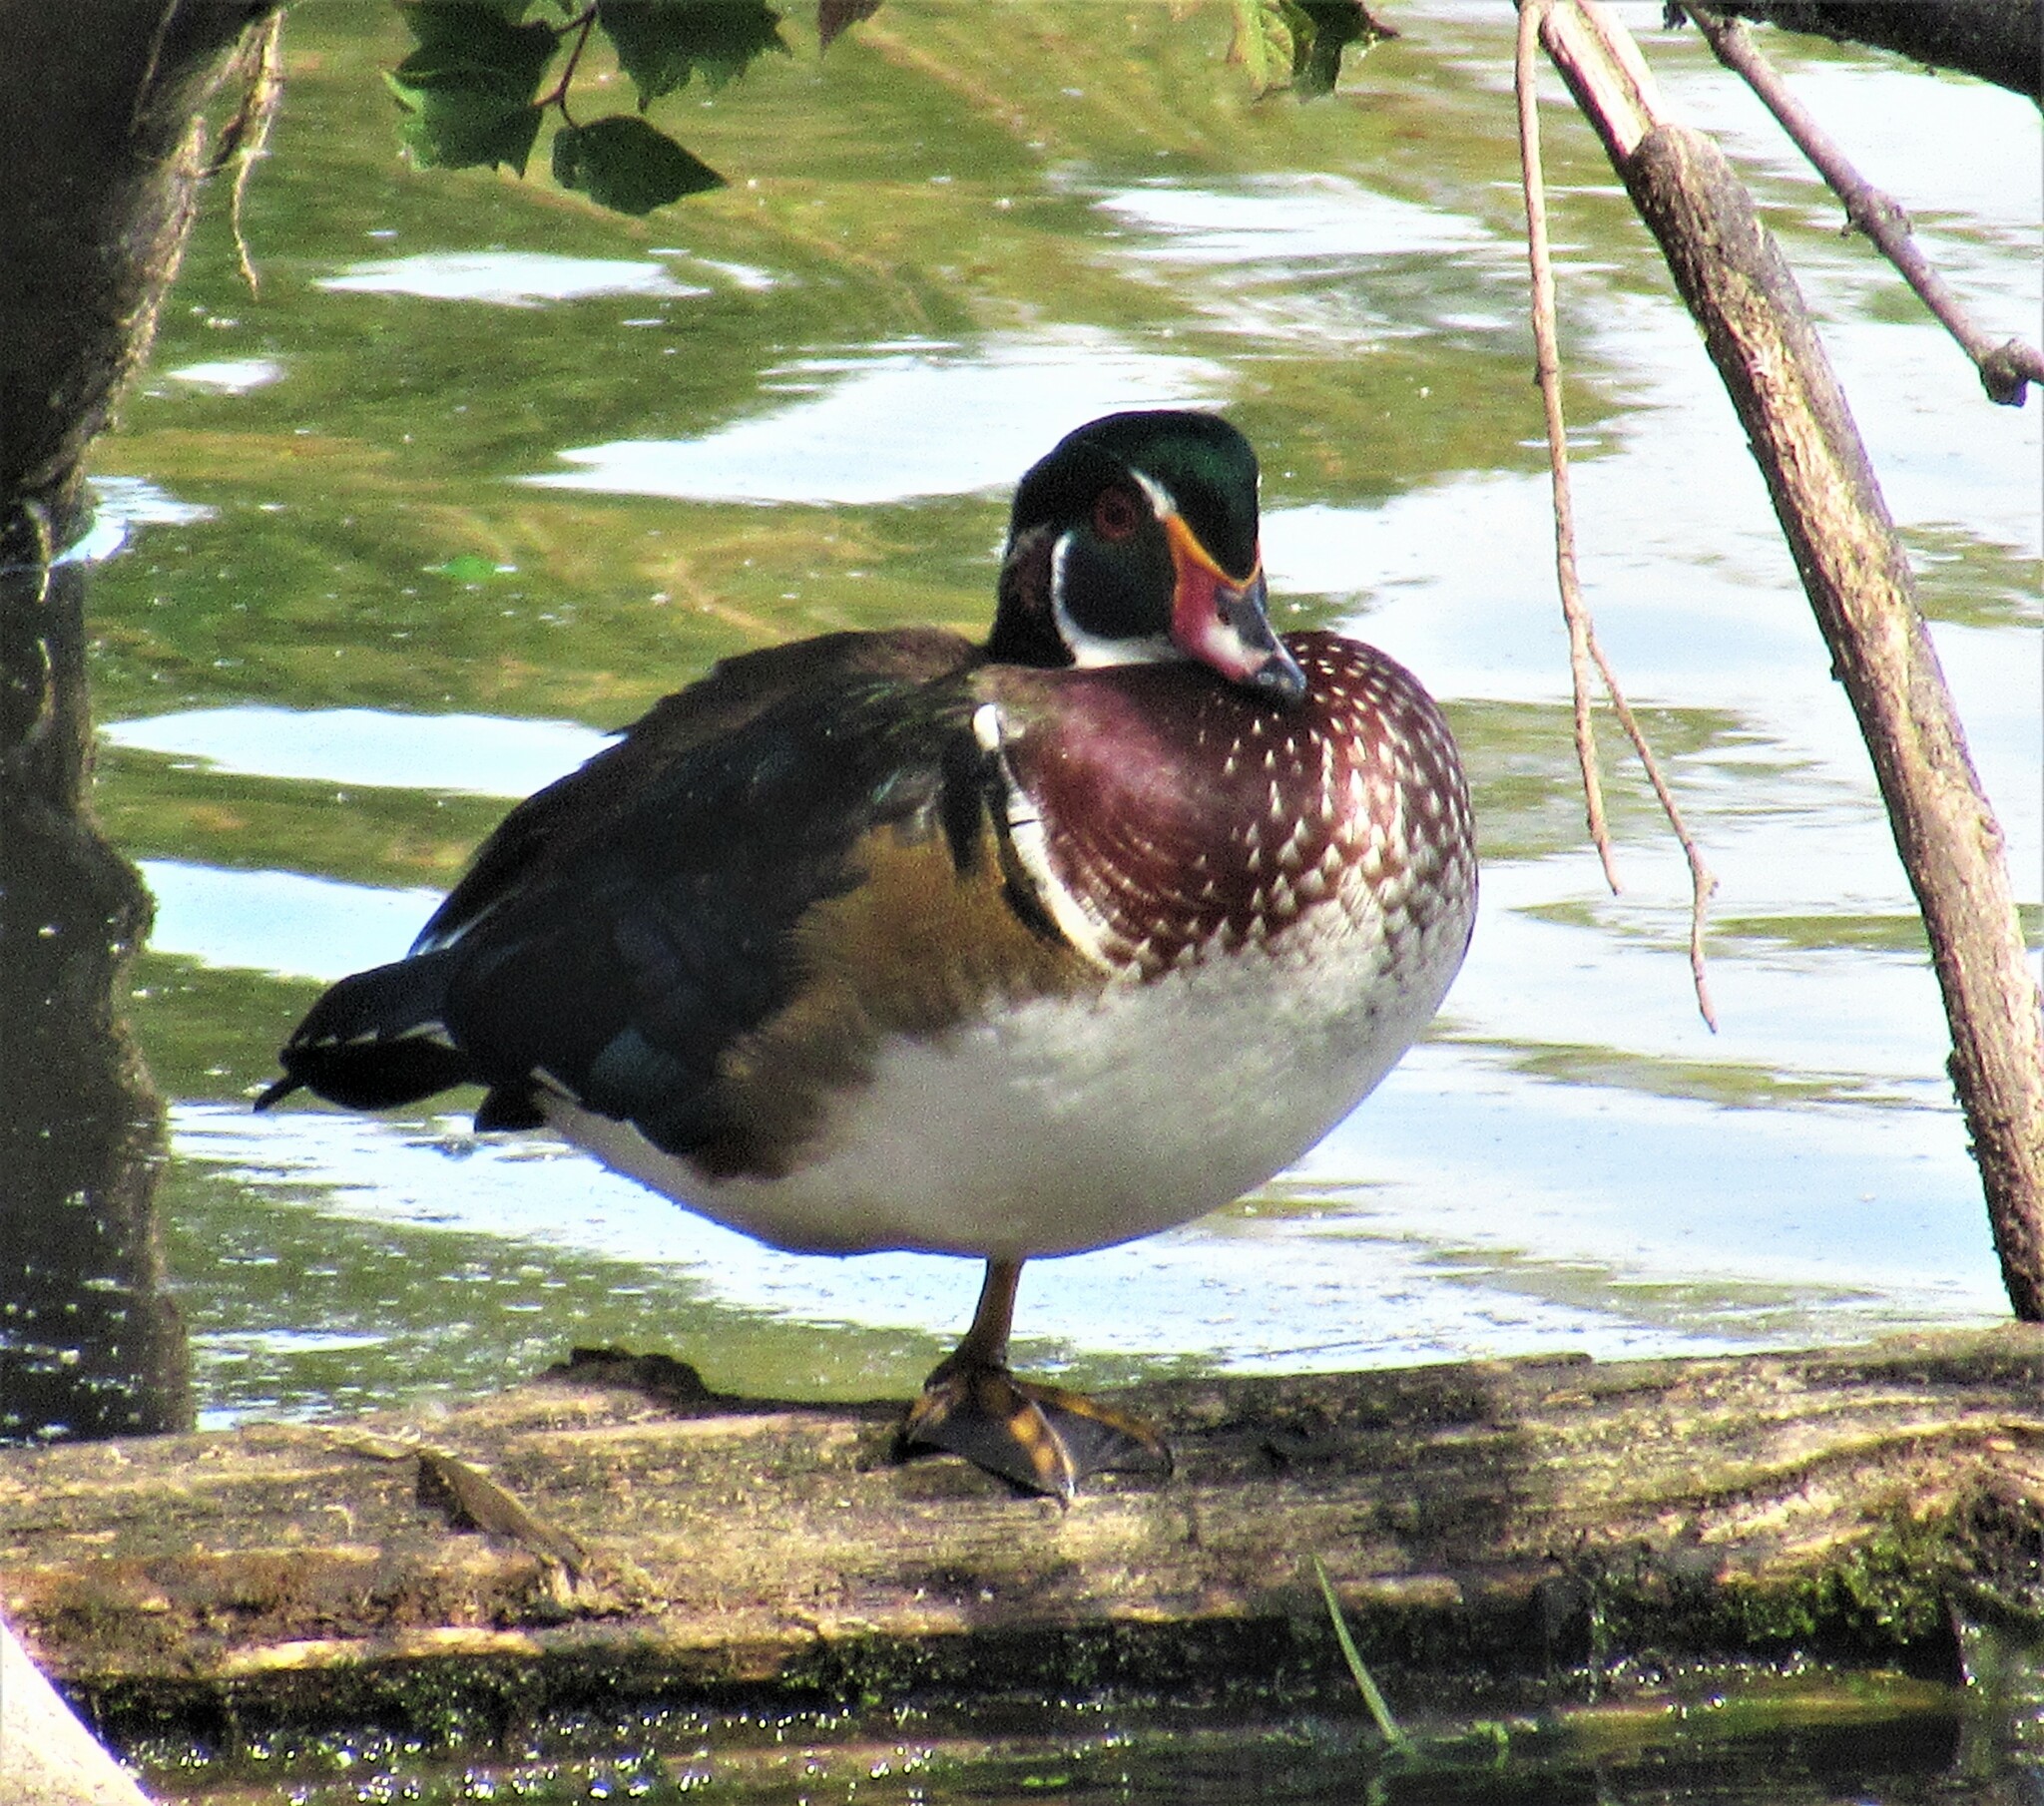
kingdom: Animalia
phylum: Chordata
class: Aves
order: Anseriformes
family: Anatidae
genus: Aix
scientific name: Aix sponsa
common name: Wood duck
